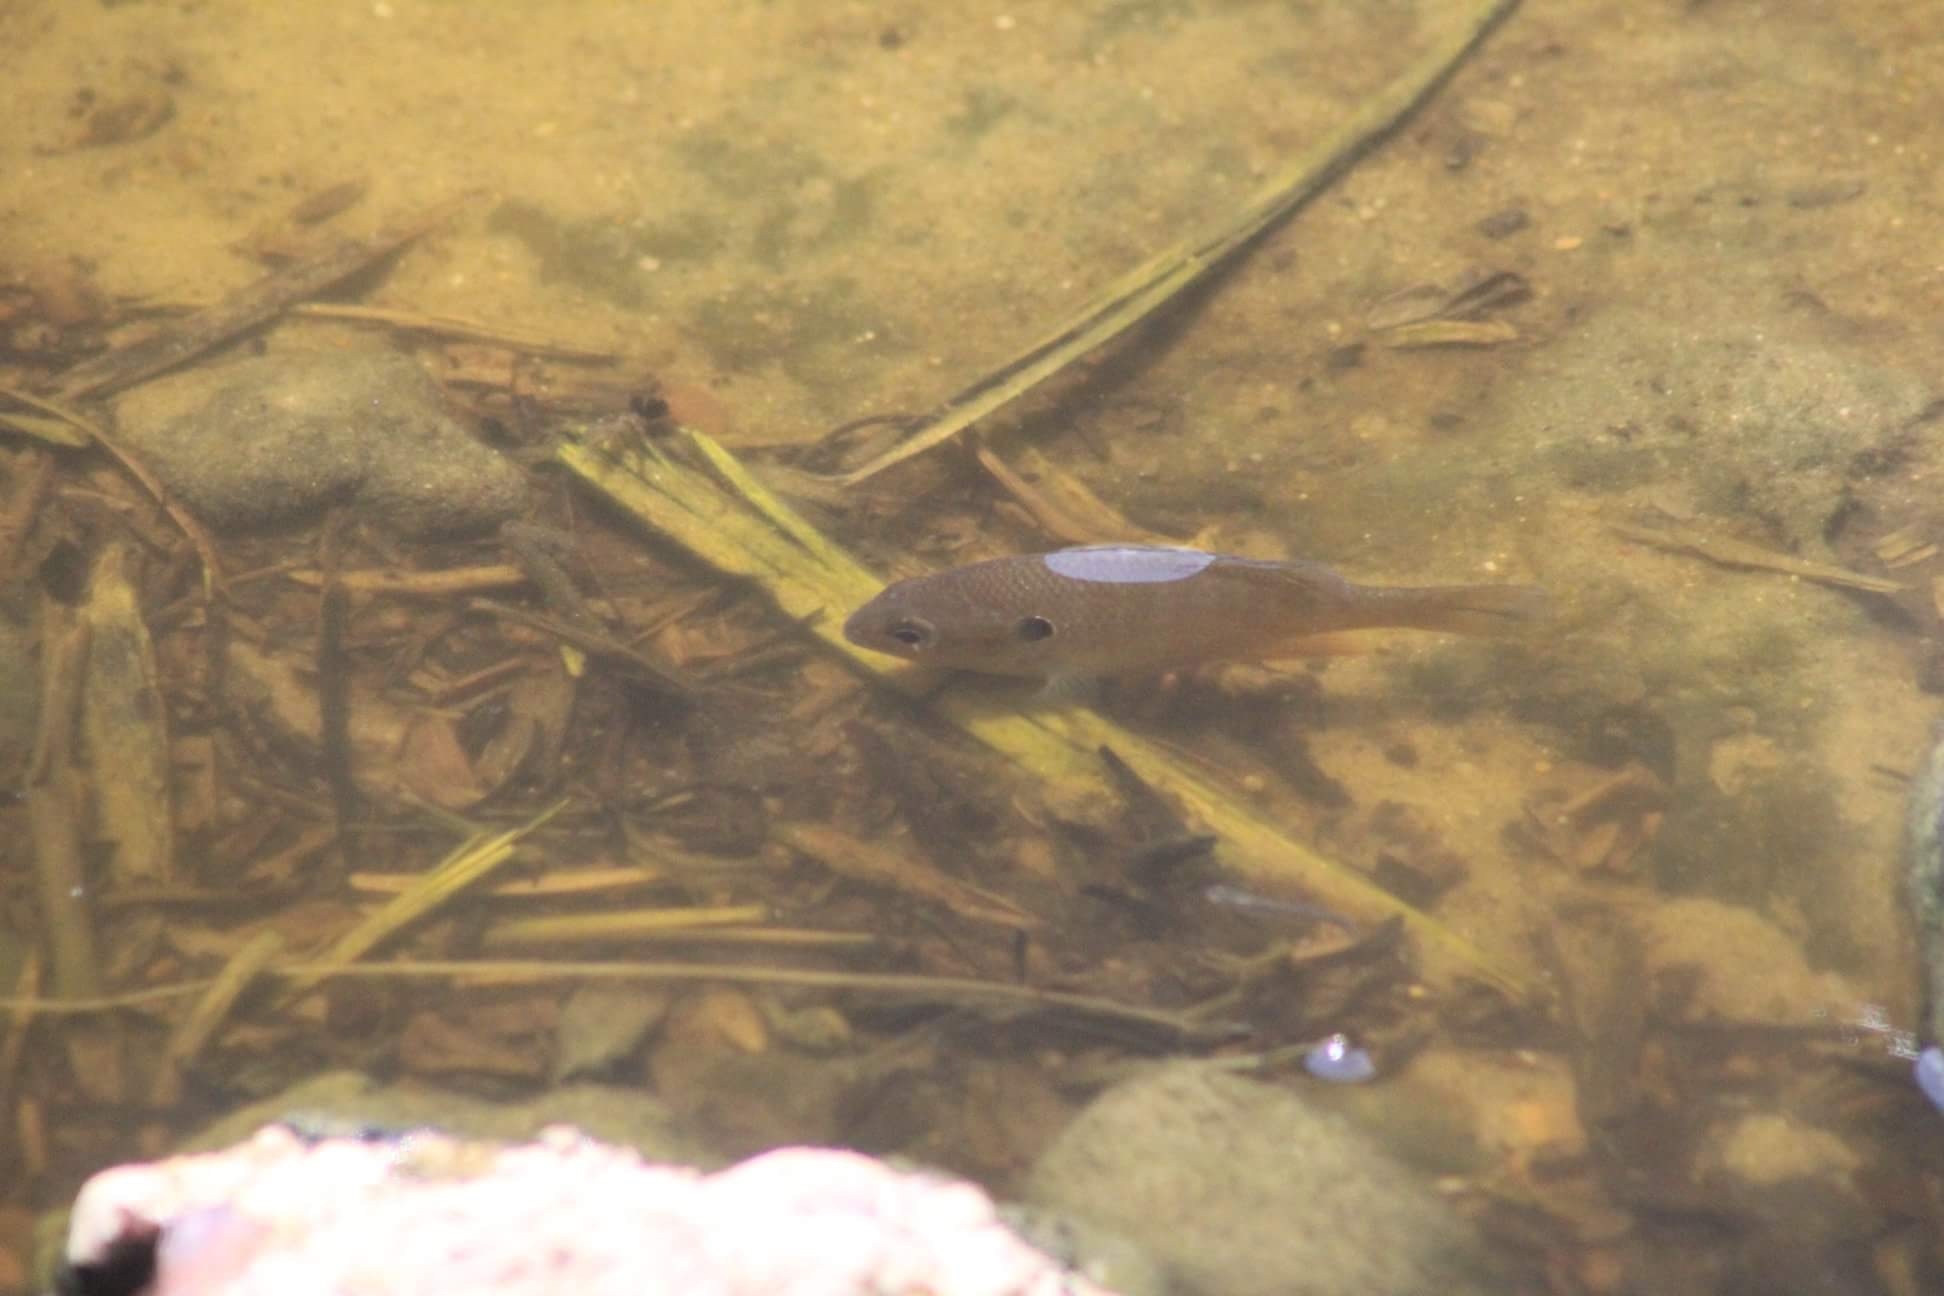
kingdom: Animalia
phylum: Chordata
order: Perciformes
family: Centrarchidae
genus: Lepomis
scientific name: Lepomis macrochirus
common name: Bluegill
